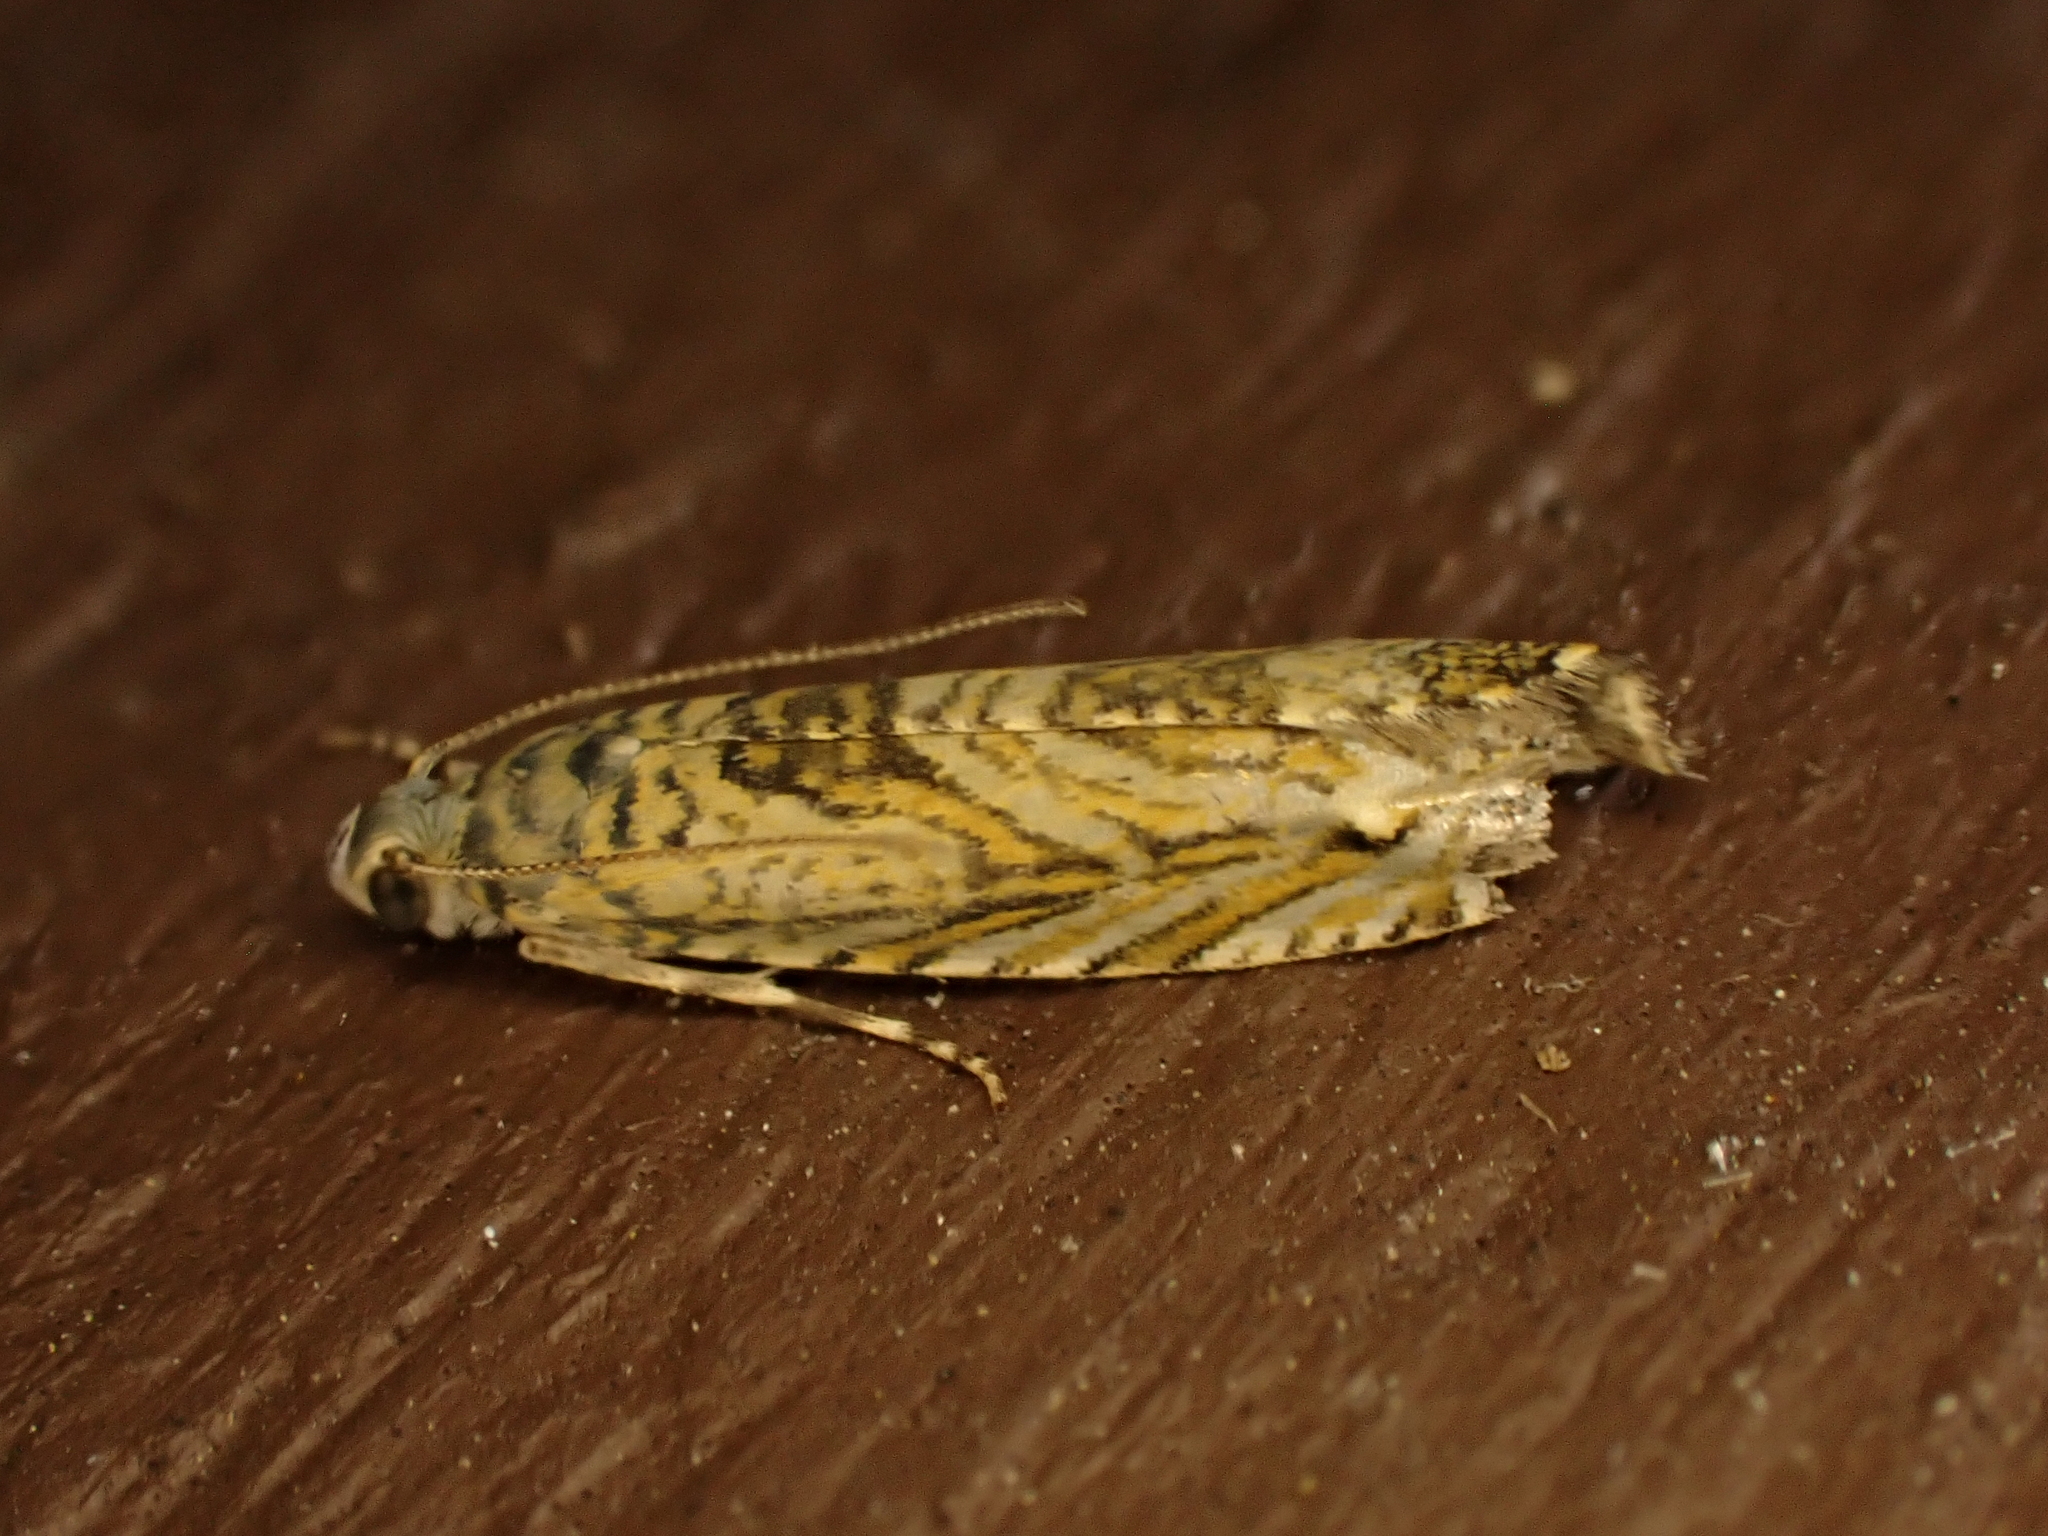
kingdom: Animalia
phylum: Arthropoda
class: Insecta
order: Lepidoptera
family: Plutellidae
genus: Doxophyrtis
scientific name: Doxophyrtis hydrocosma
